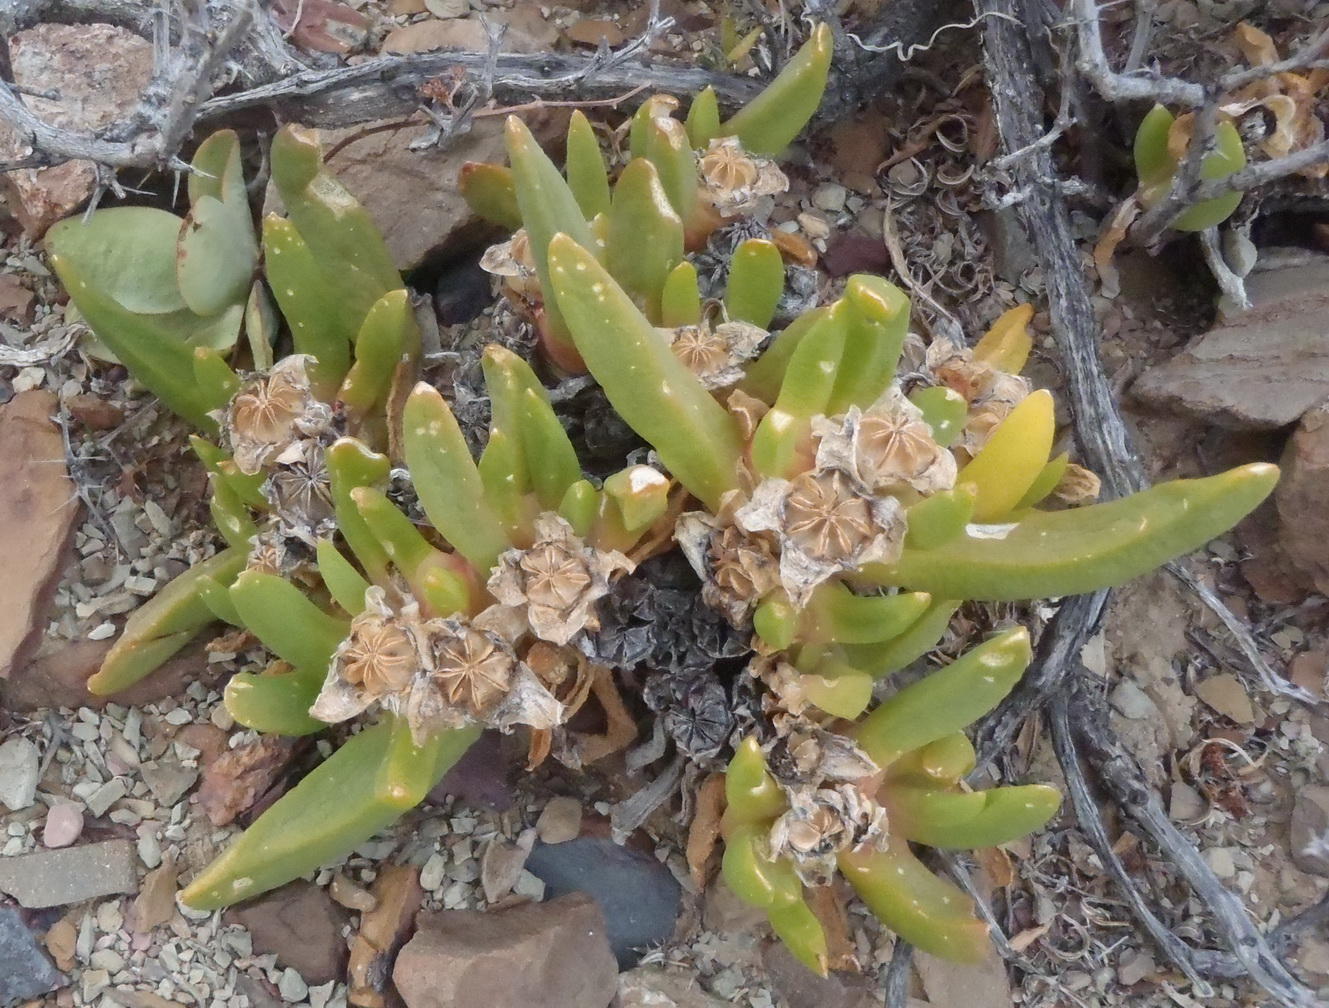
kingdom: Plantae
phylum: Tracheophyta
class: Magnoliopsida
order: Caryophyllales
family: Aizoaceae
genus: Glottiphyllum
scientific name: Glottiphyllum surrectum
